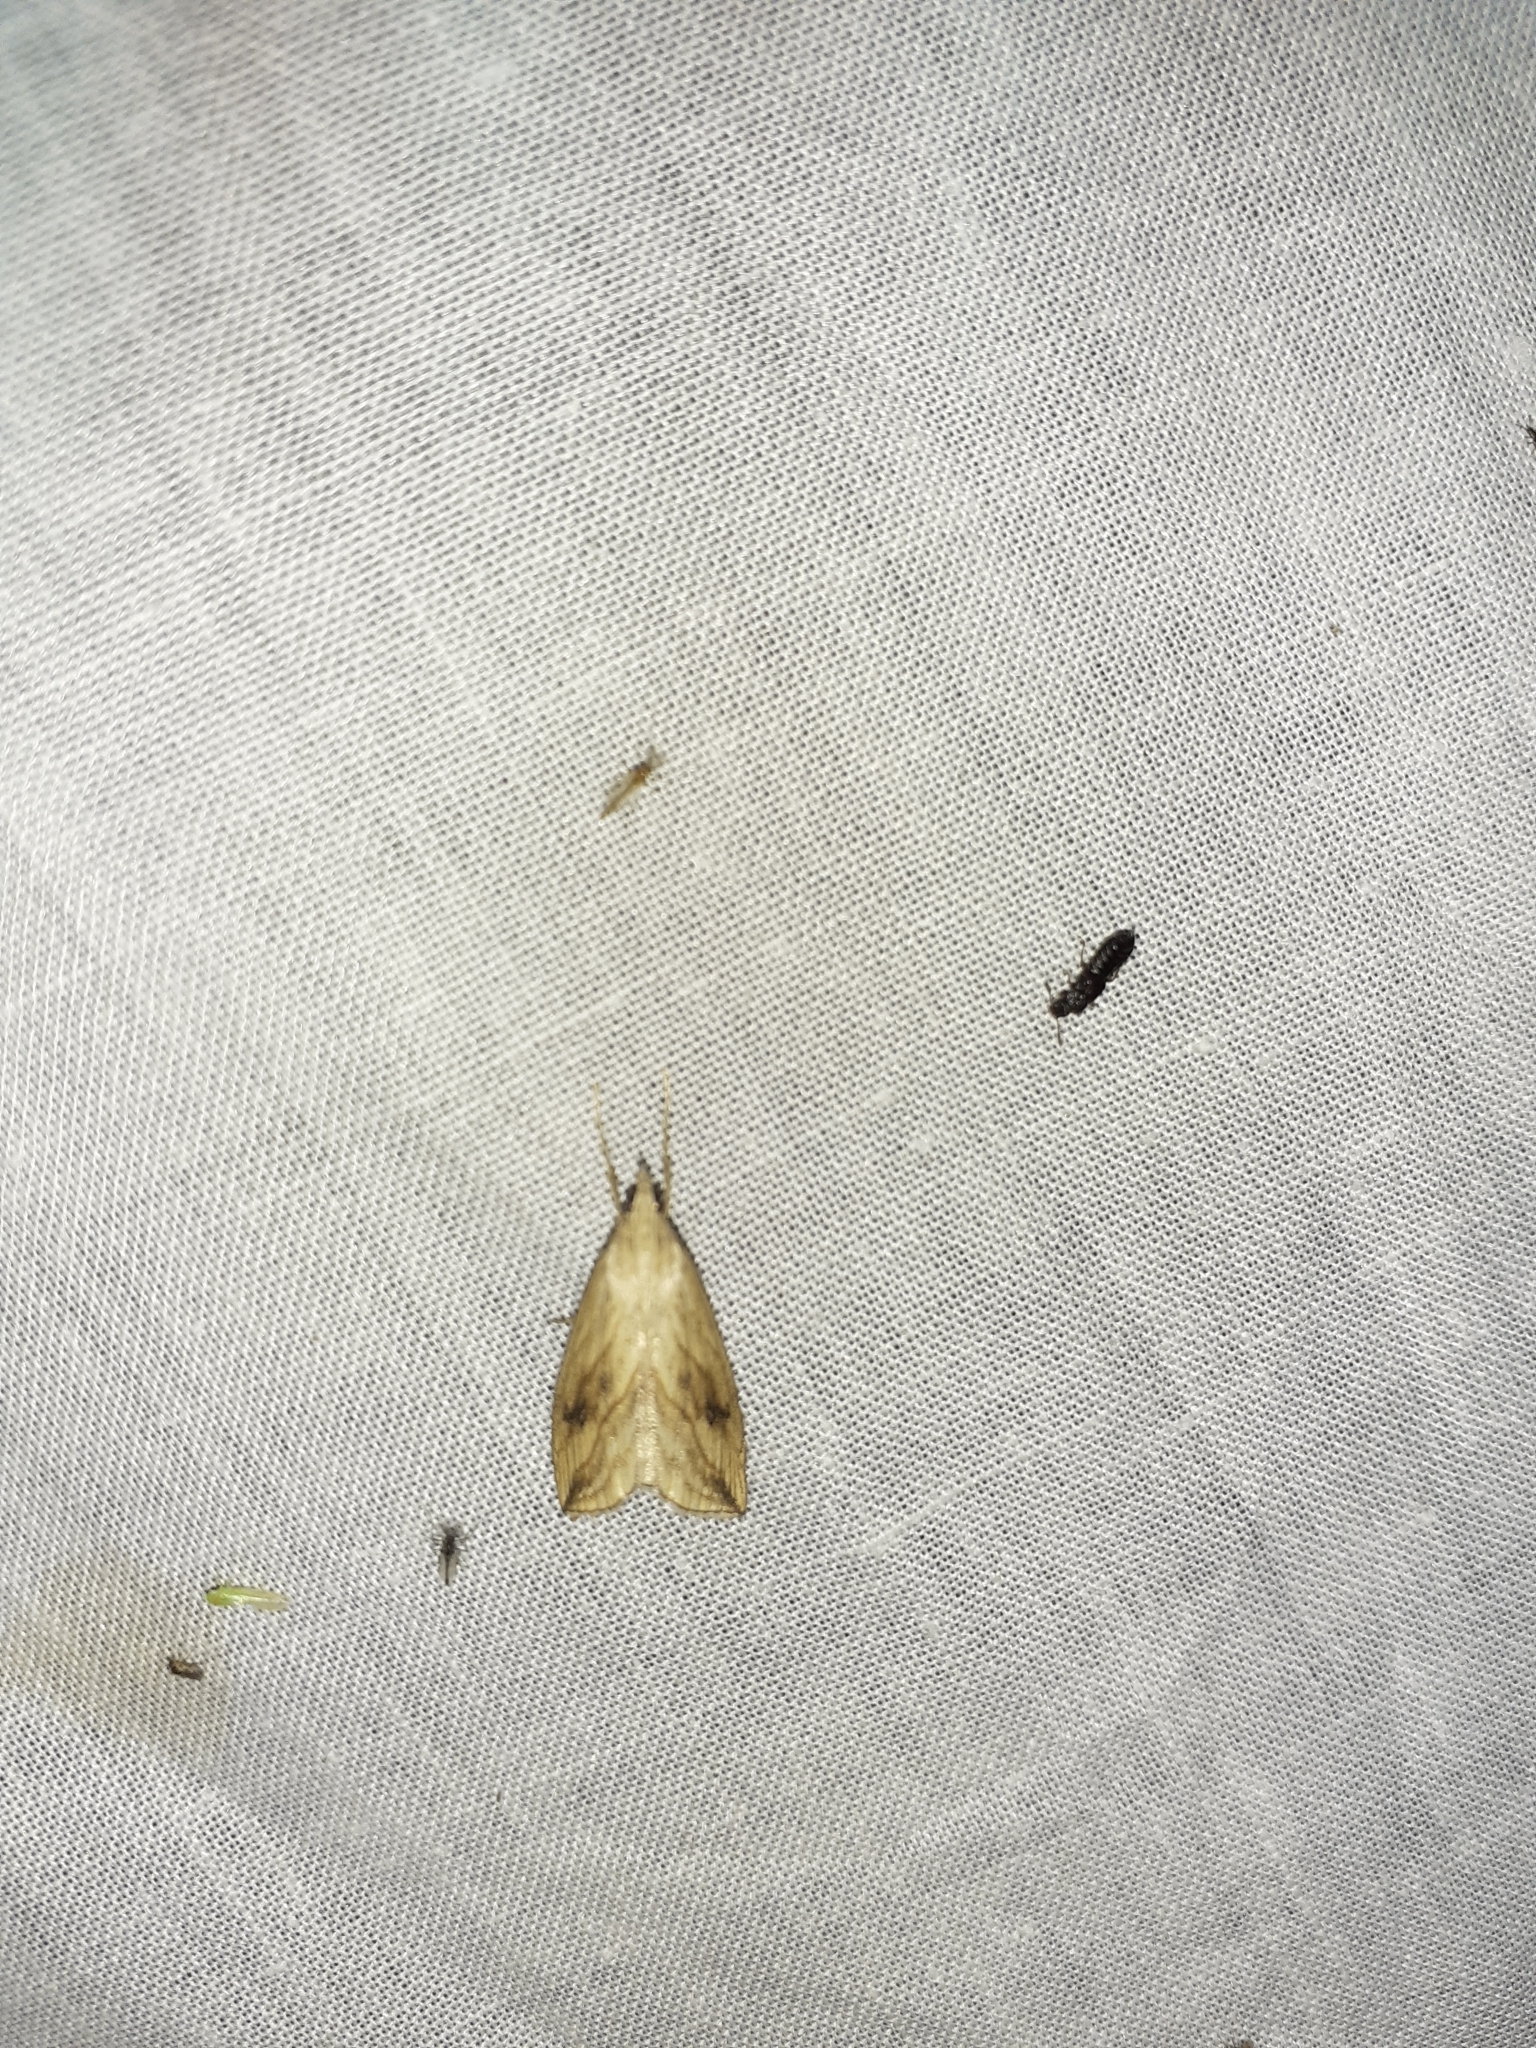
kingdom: Animalia
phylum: Arthropoda
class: Insecta
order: Lepidoptera
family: Crambidae
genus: Evergestis
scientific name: Evergestis forficalis
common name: Garden pebble
